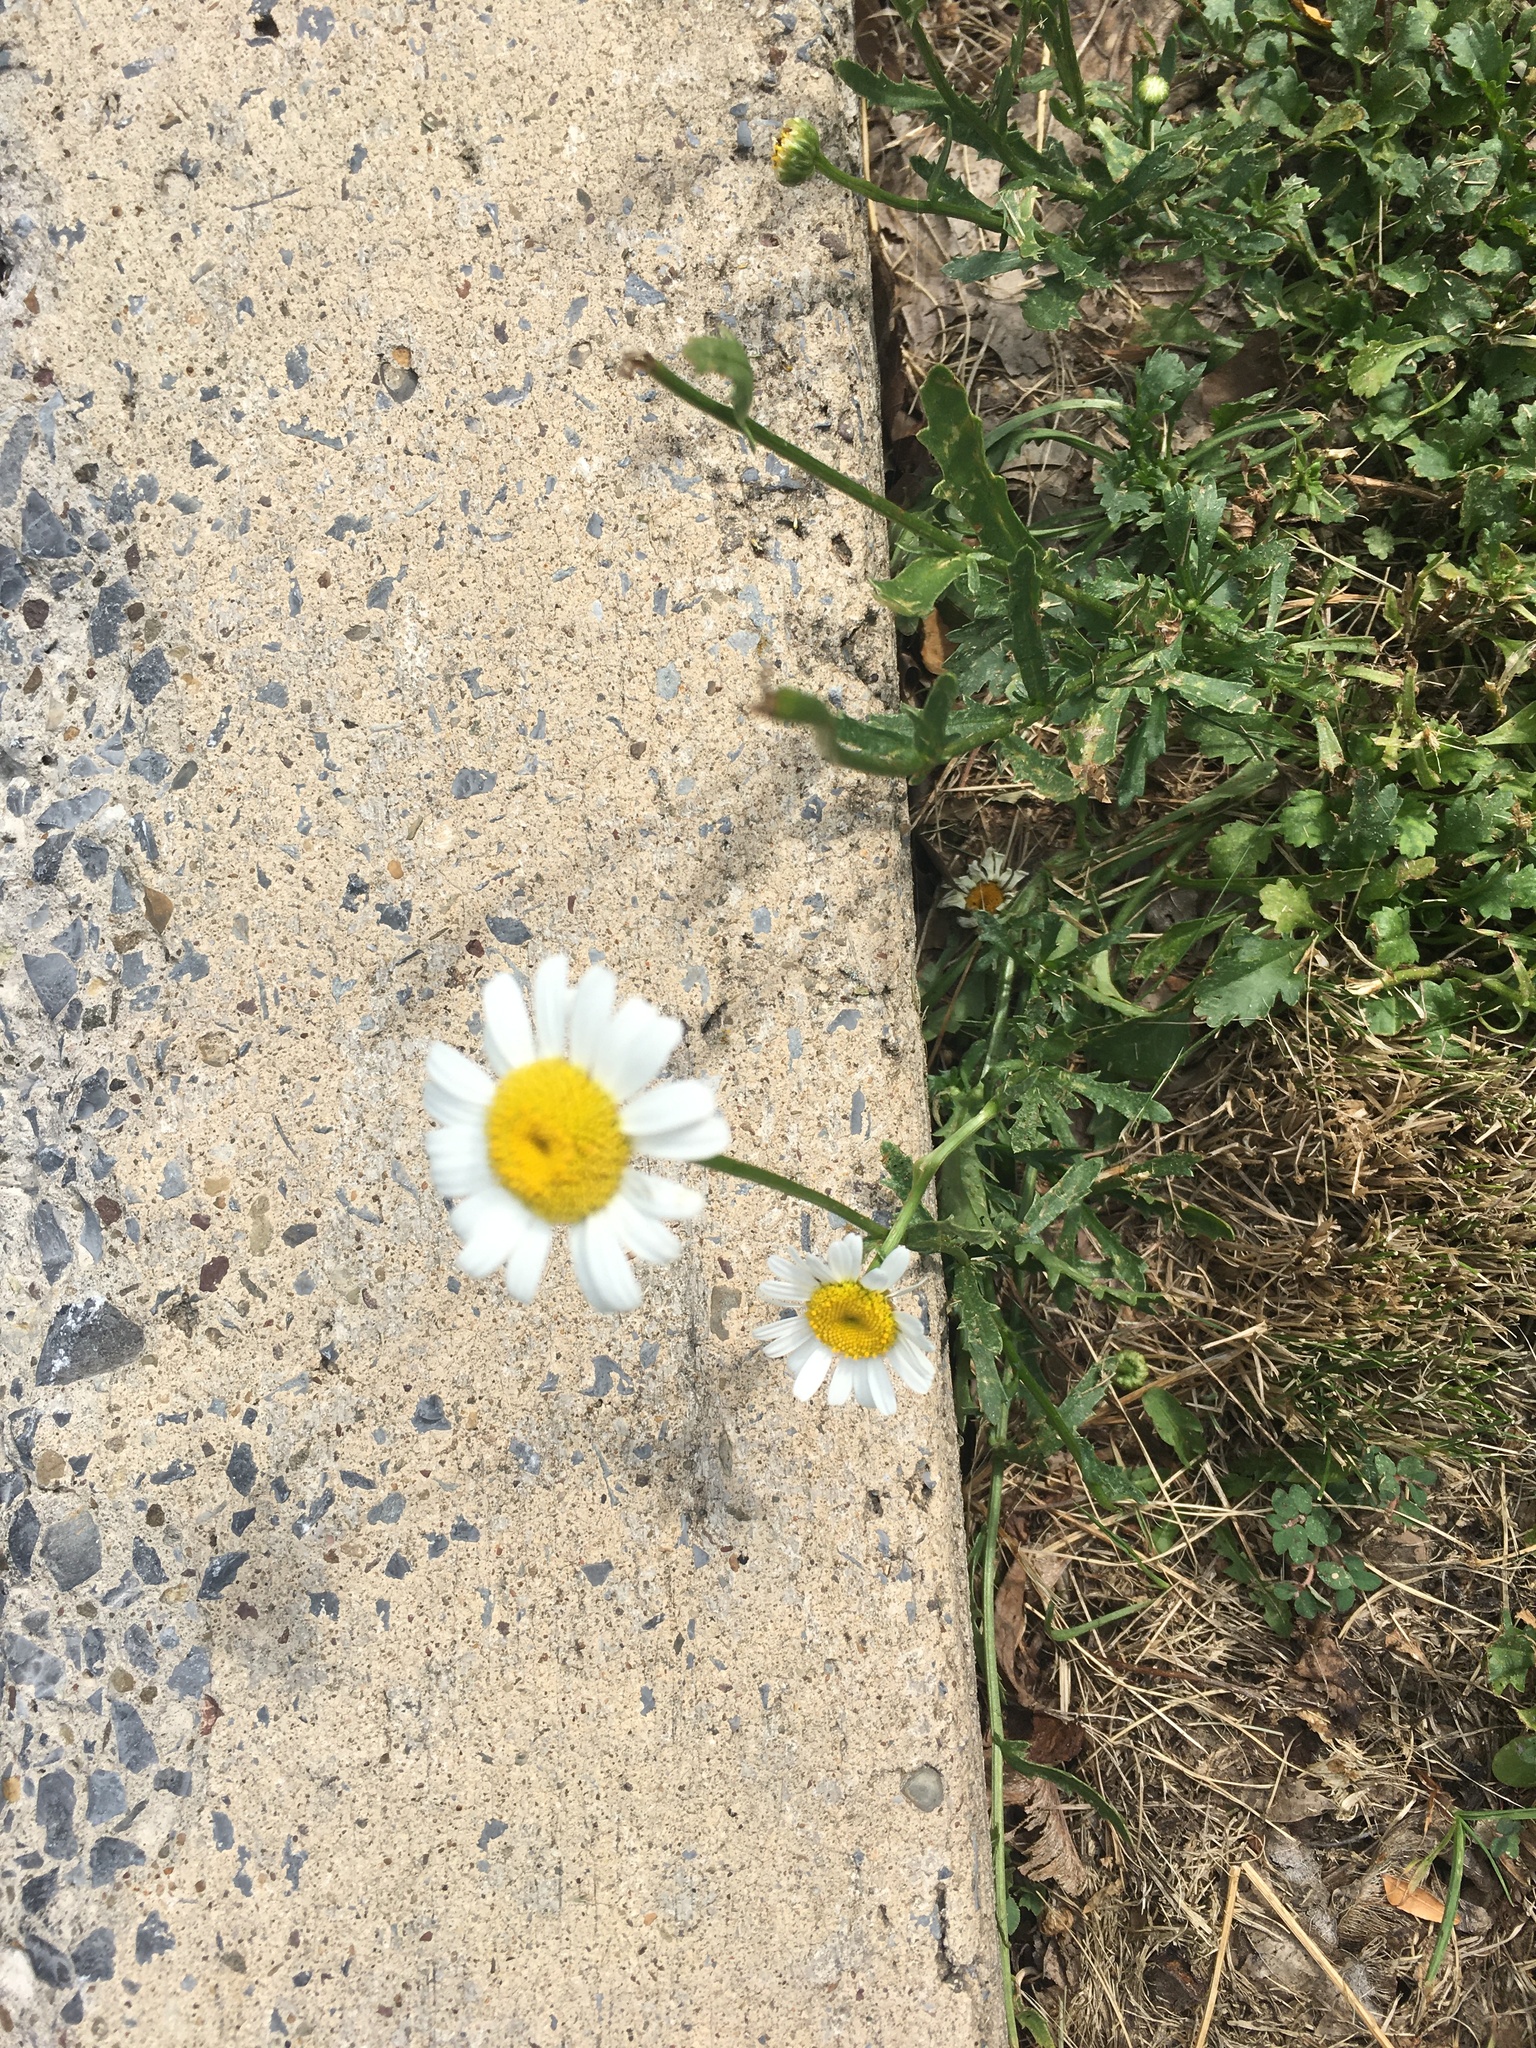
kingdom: Plantae
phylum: Tracheophyta
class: Magnoliopsida
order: Asterales
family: Asteraceae
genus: Leucanthemum
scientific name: Leucanthemum vulgare
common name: Oxeye daisy
